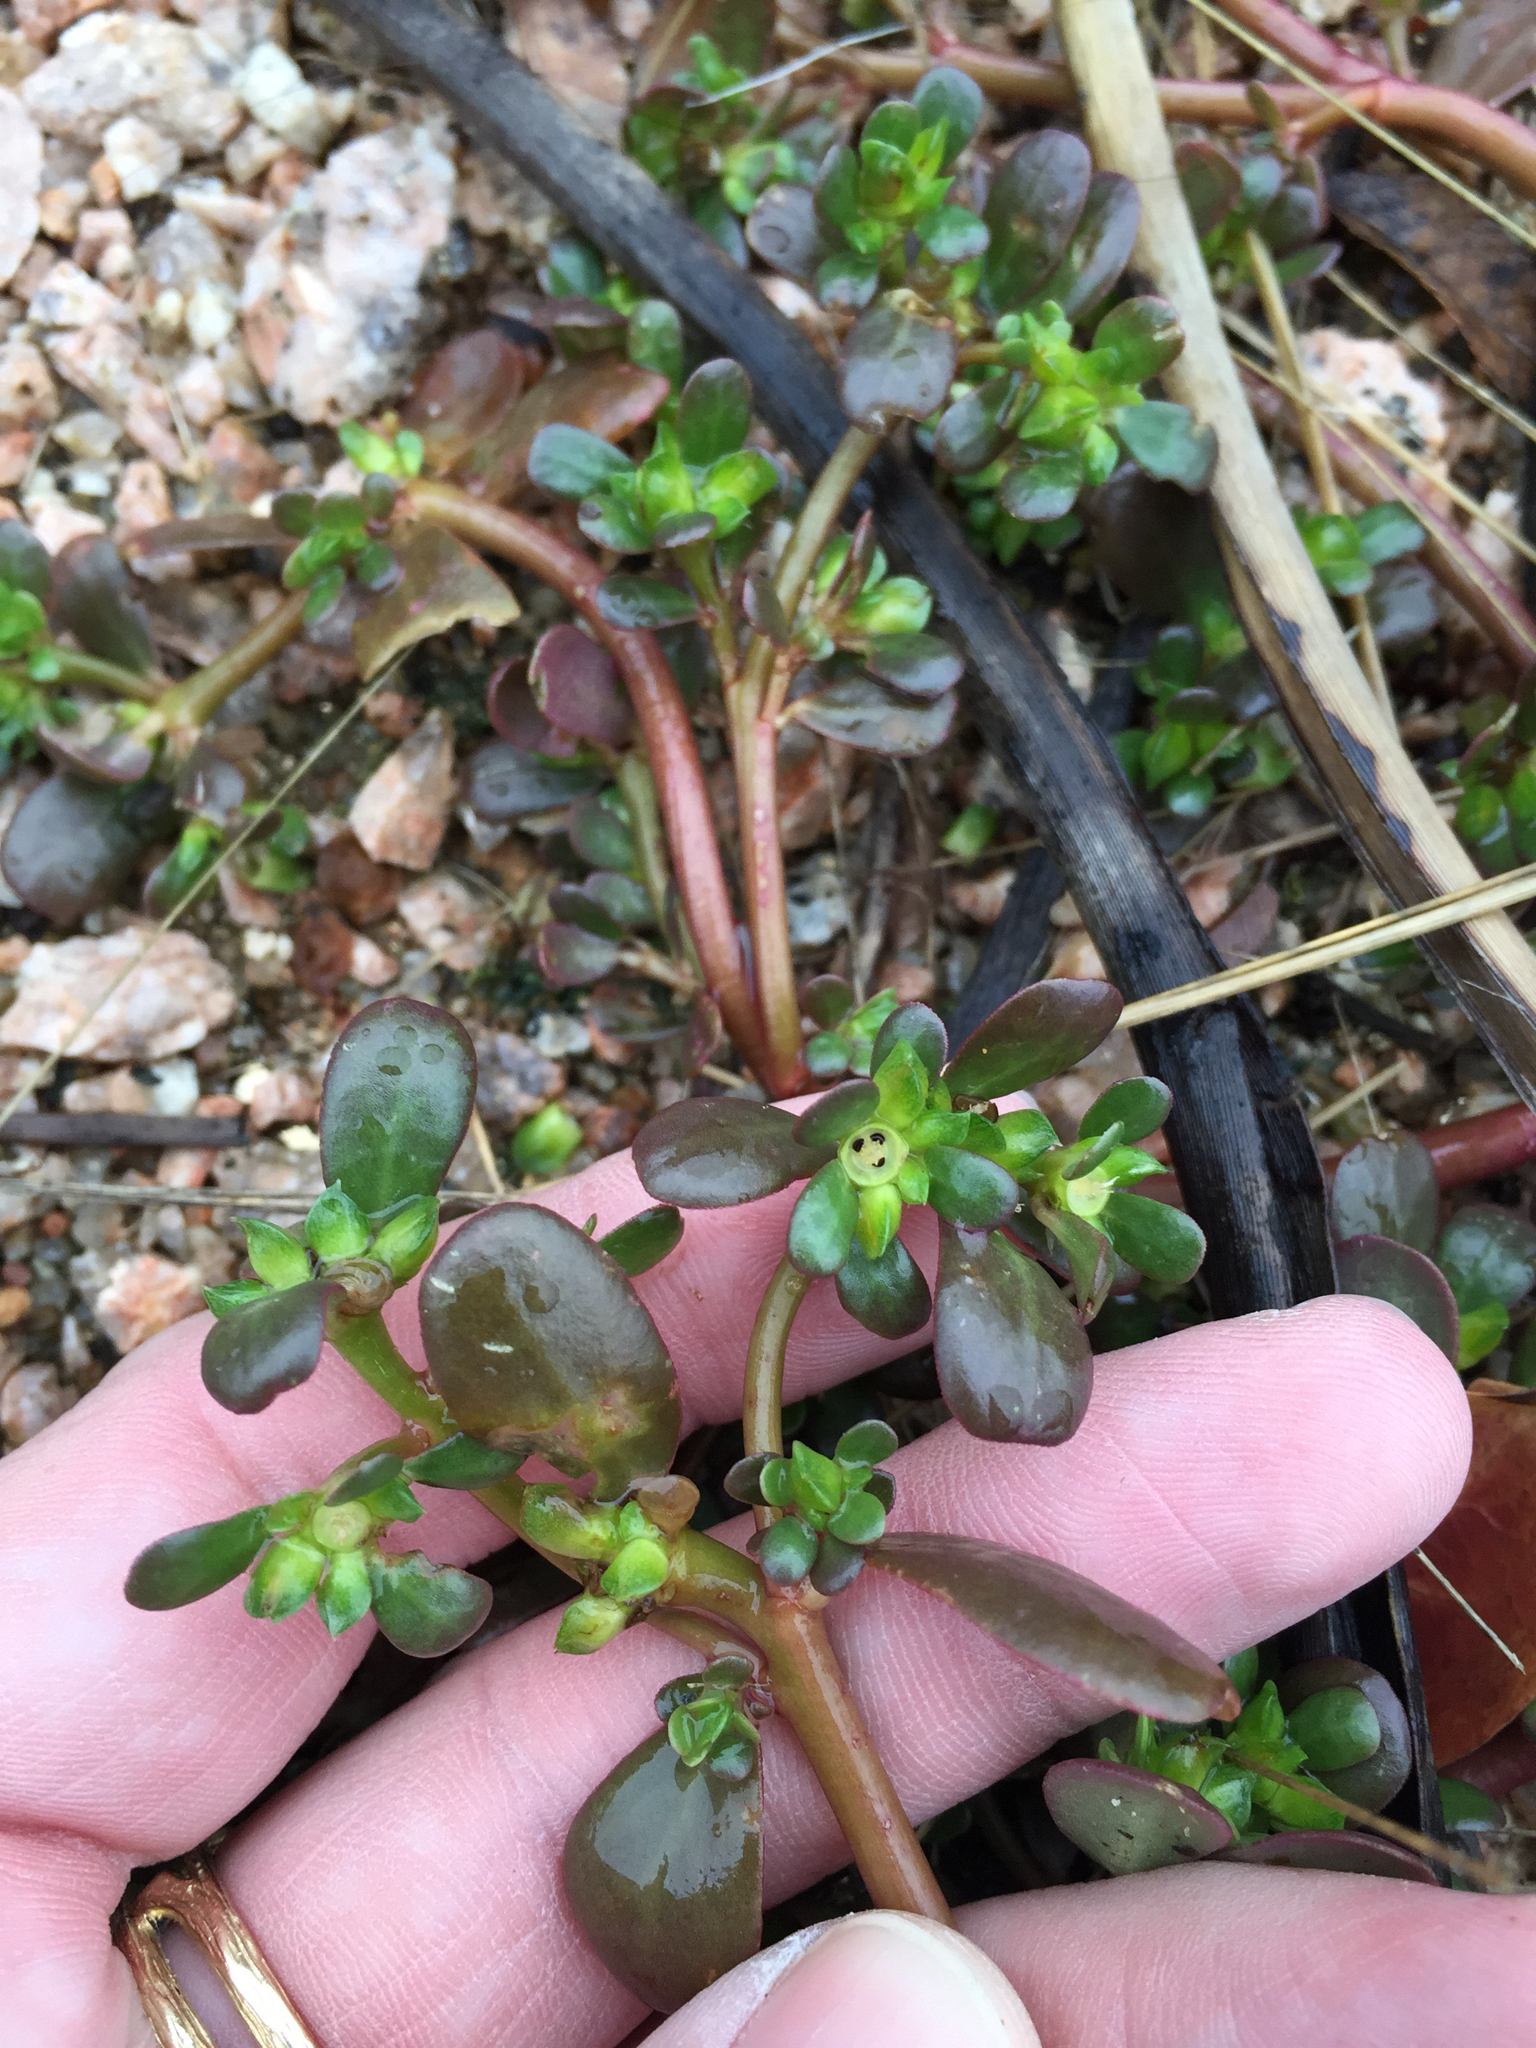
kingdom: Plantae
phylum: Tracheophyta
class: Magnoliopsida
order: Caryophyllales
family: Portulacaceae
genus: Portulaca
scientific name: Portulaca oleracea
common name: Common purslane
